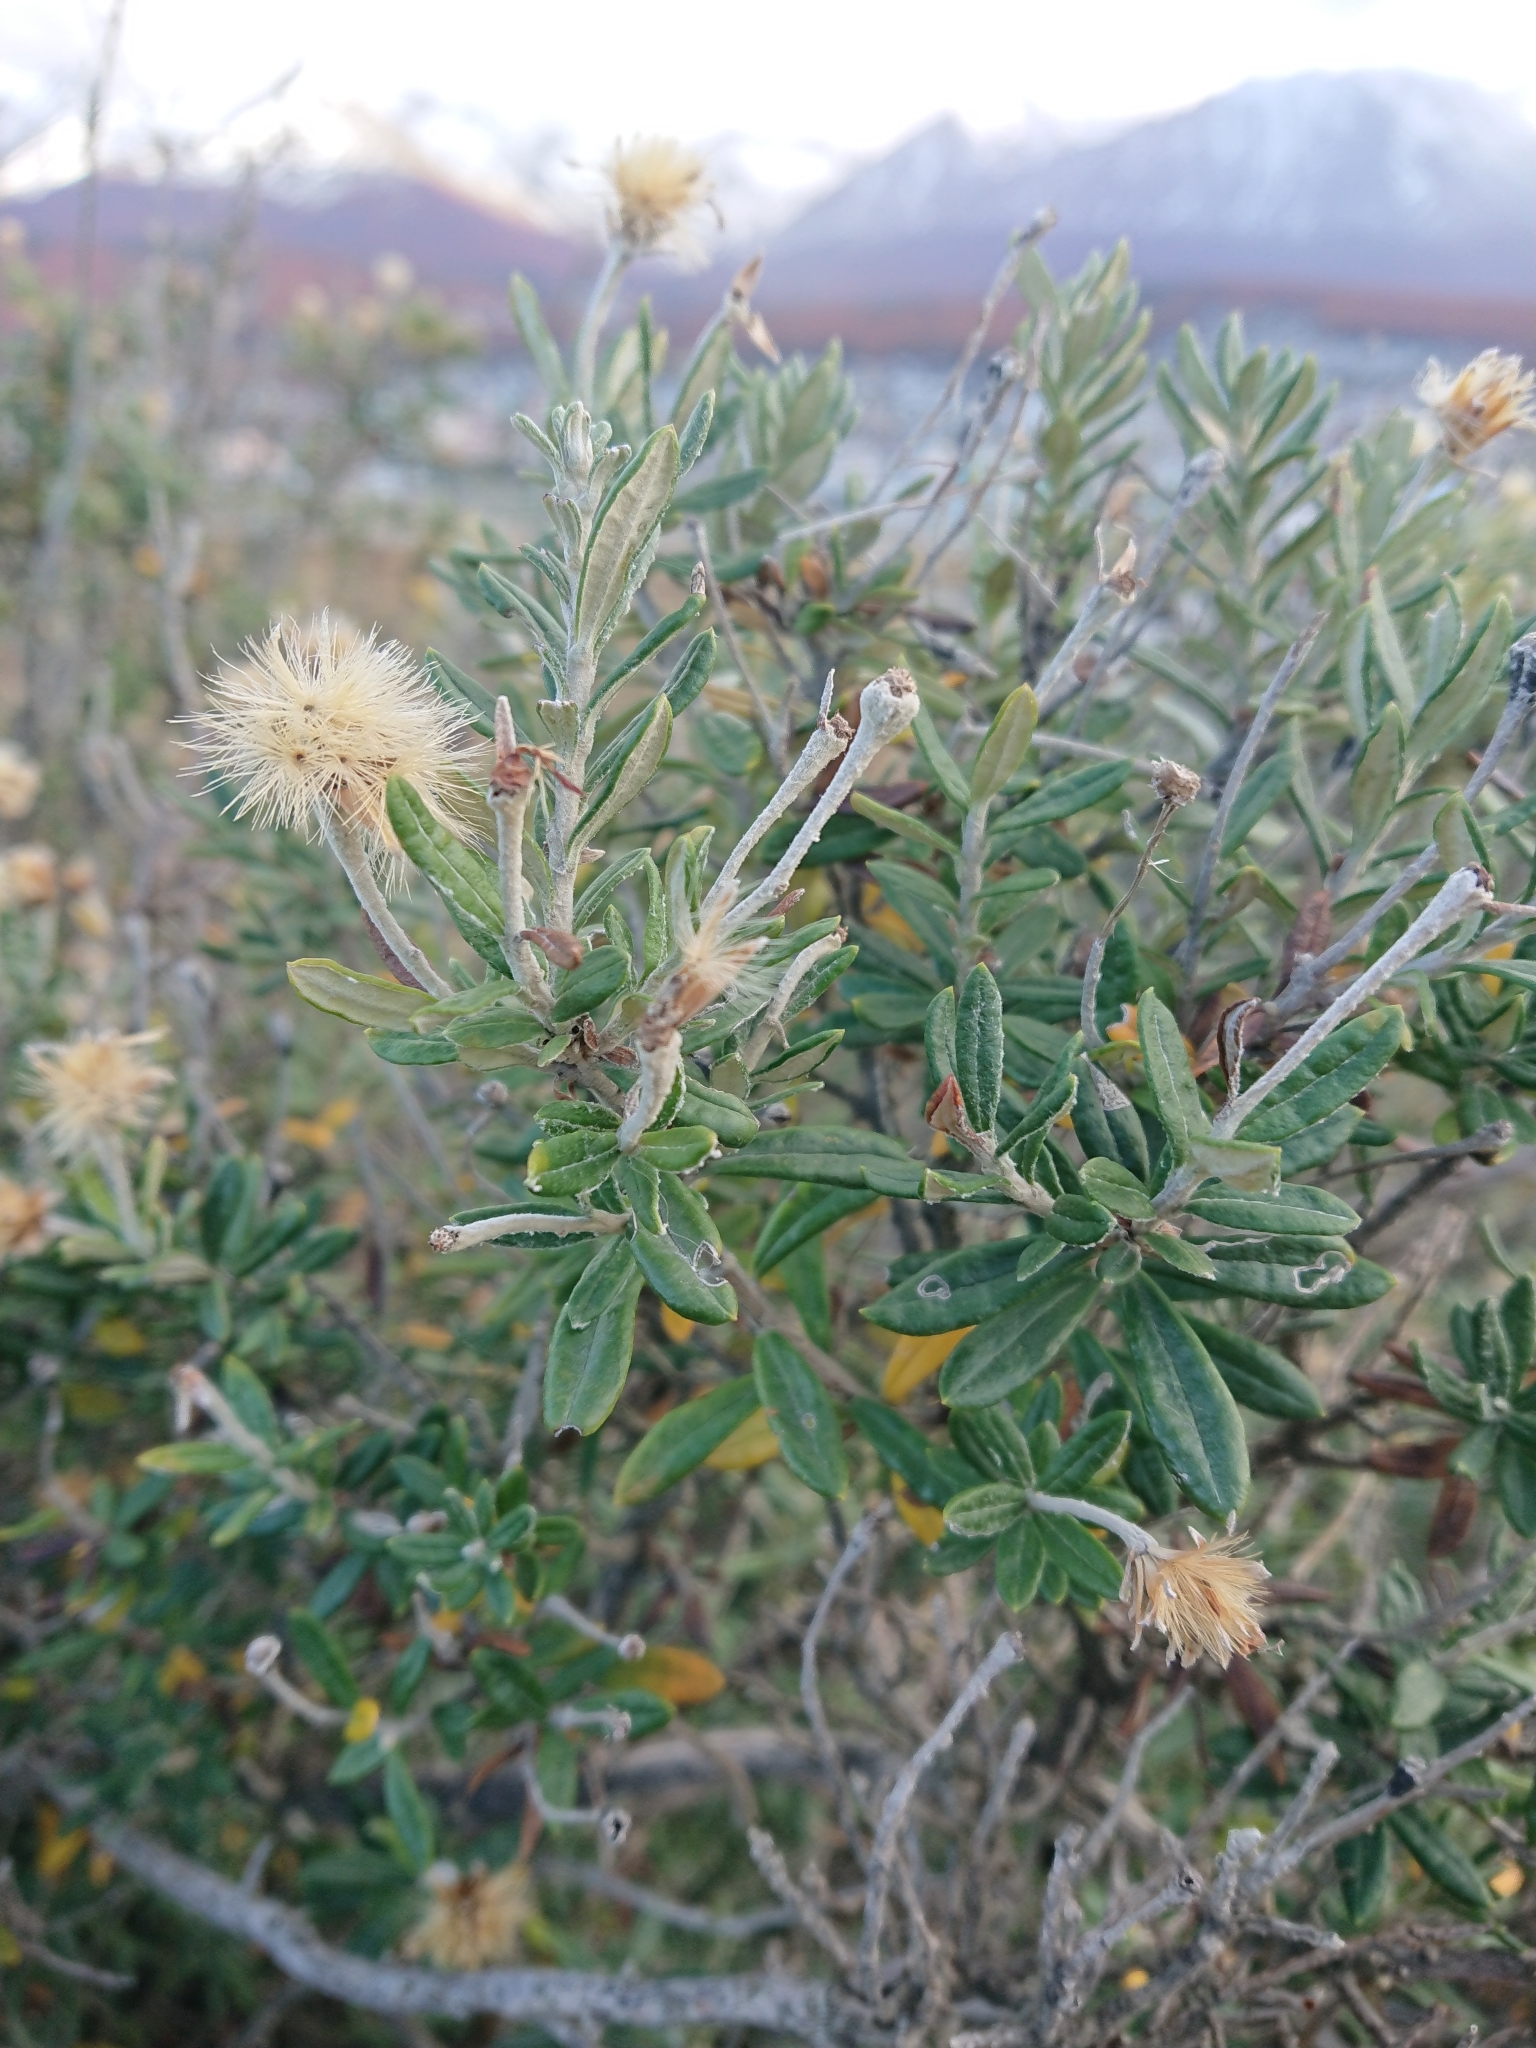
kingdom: Plantae
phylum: Tracheophyta
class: Magnoliopsida
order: Asterales
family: Asteraceae
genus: Chiliotrichum
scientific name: Chiliotrichum diffusum
